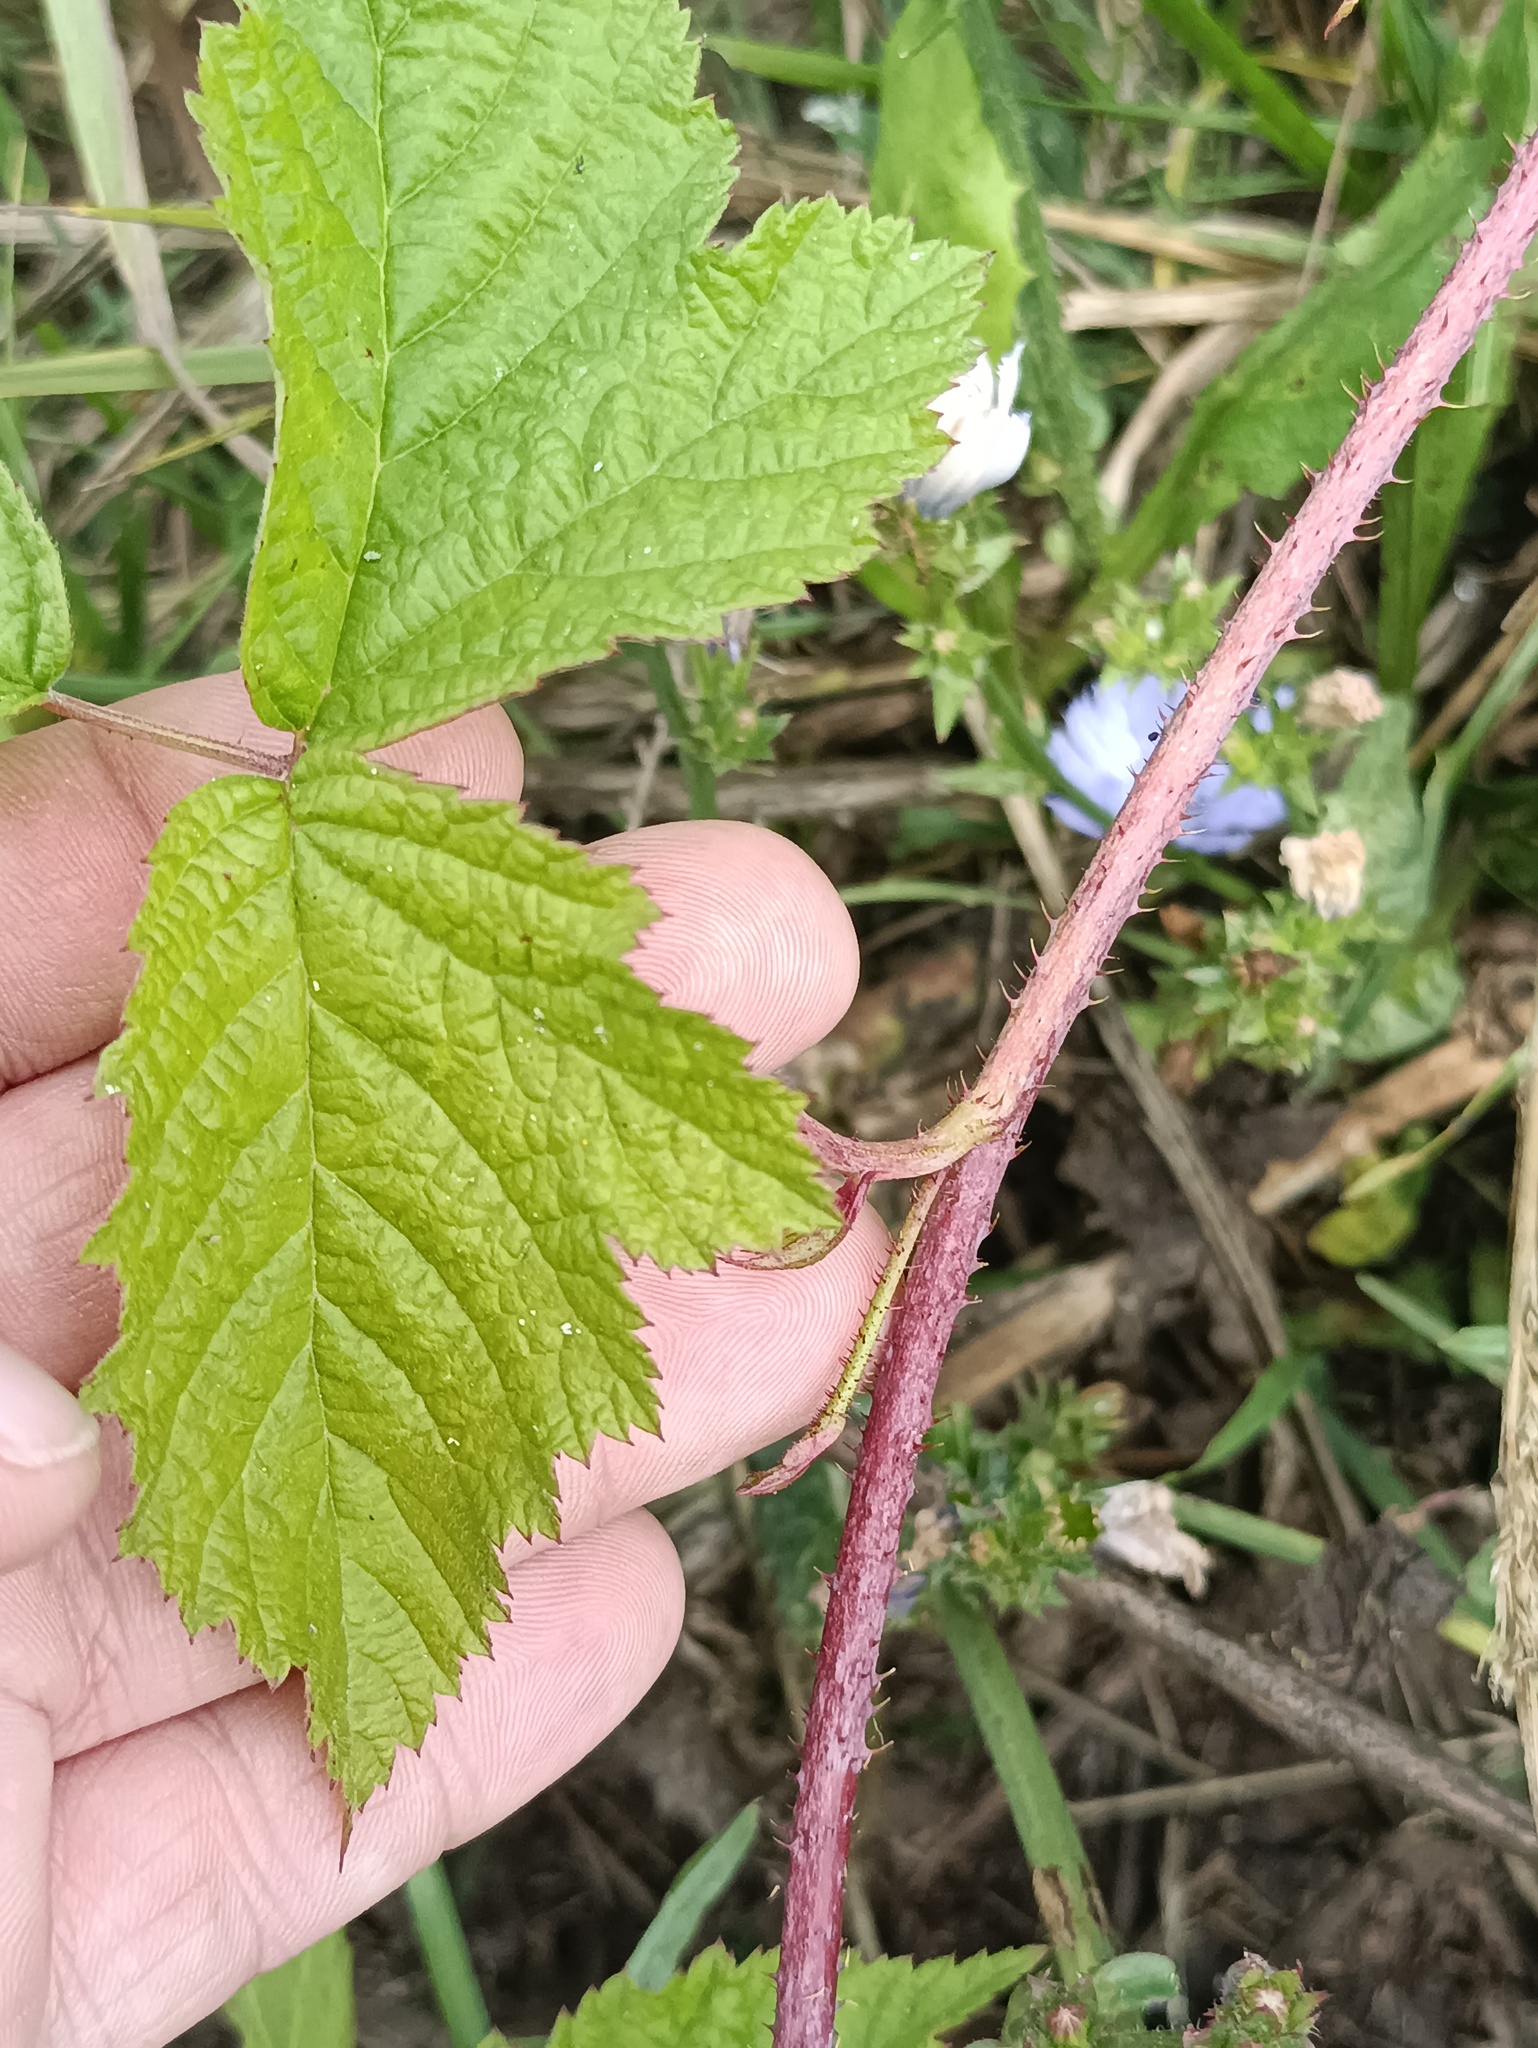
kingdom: Plantae
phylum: Tracheophyta
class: Magnoliopsida
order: Rosales
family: Rosaceae
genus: Rubus
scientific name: Rubus caesius
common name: Dewberry
